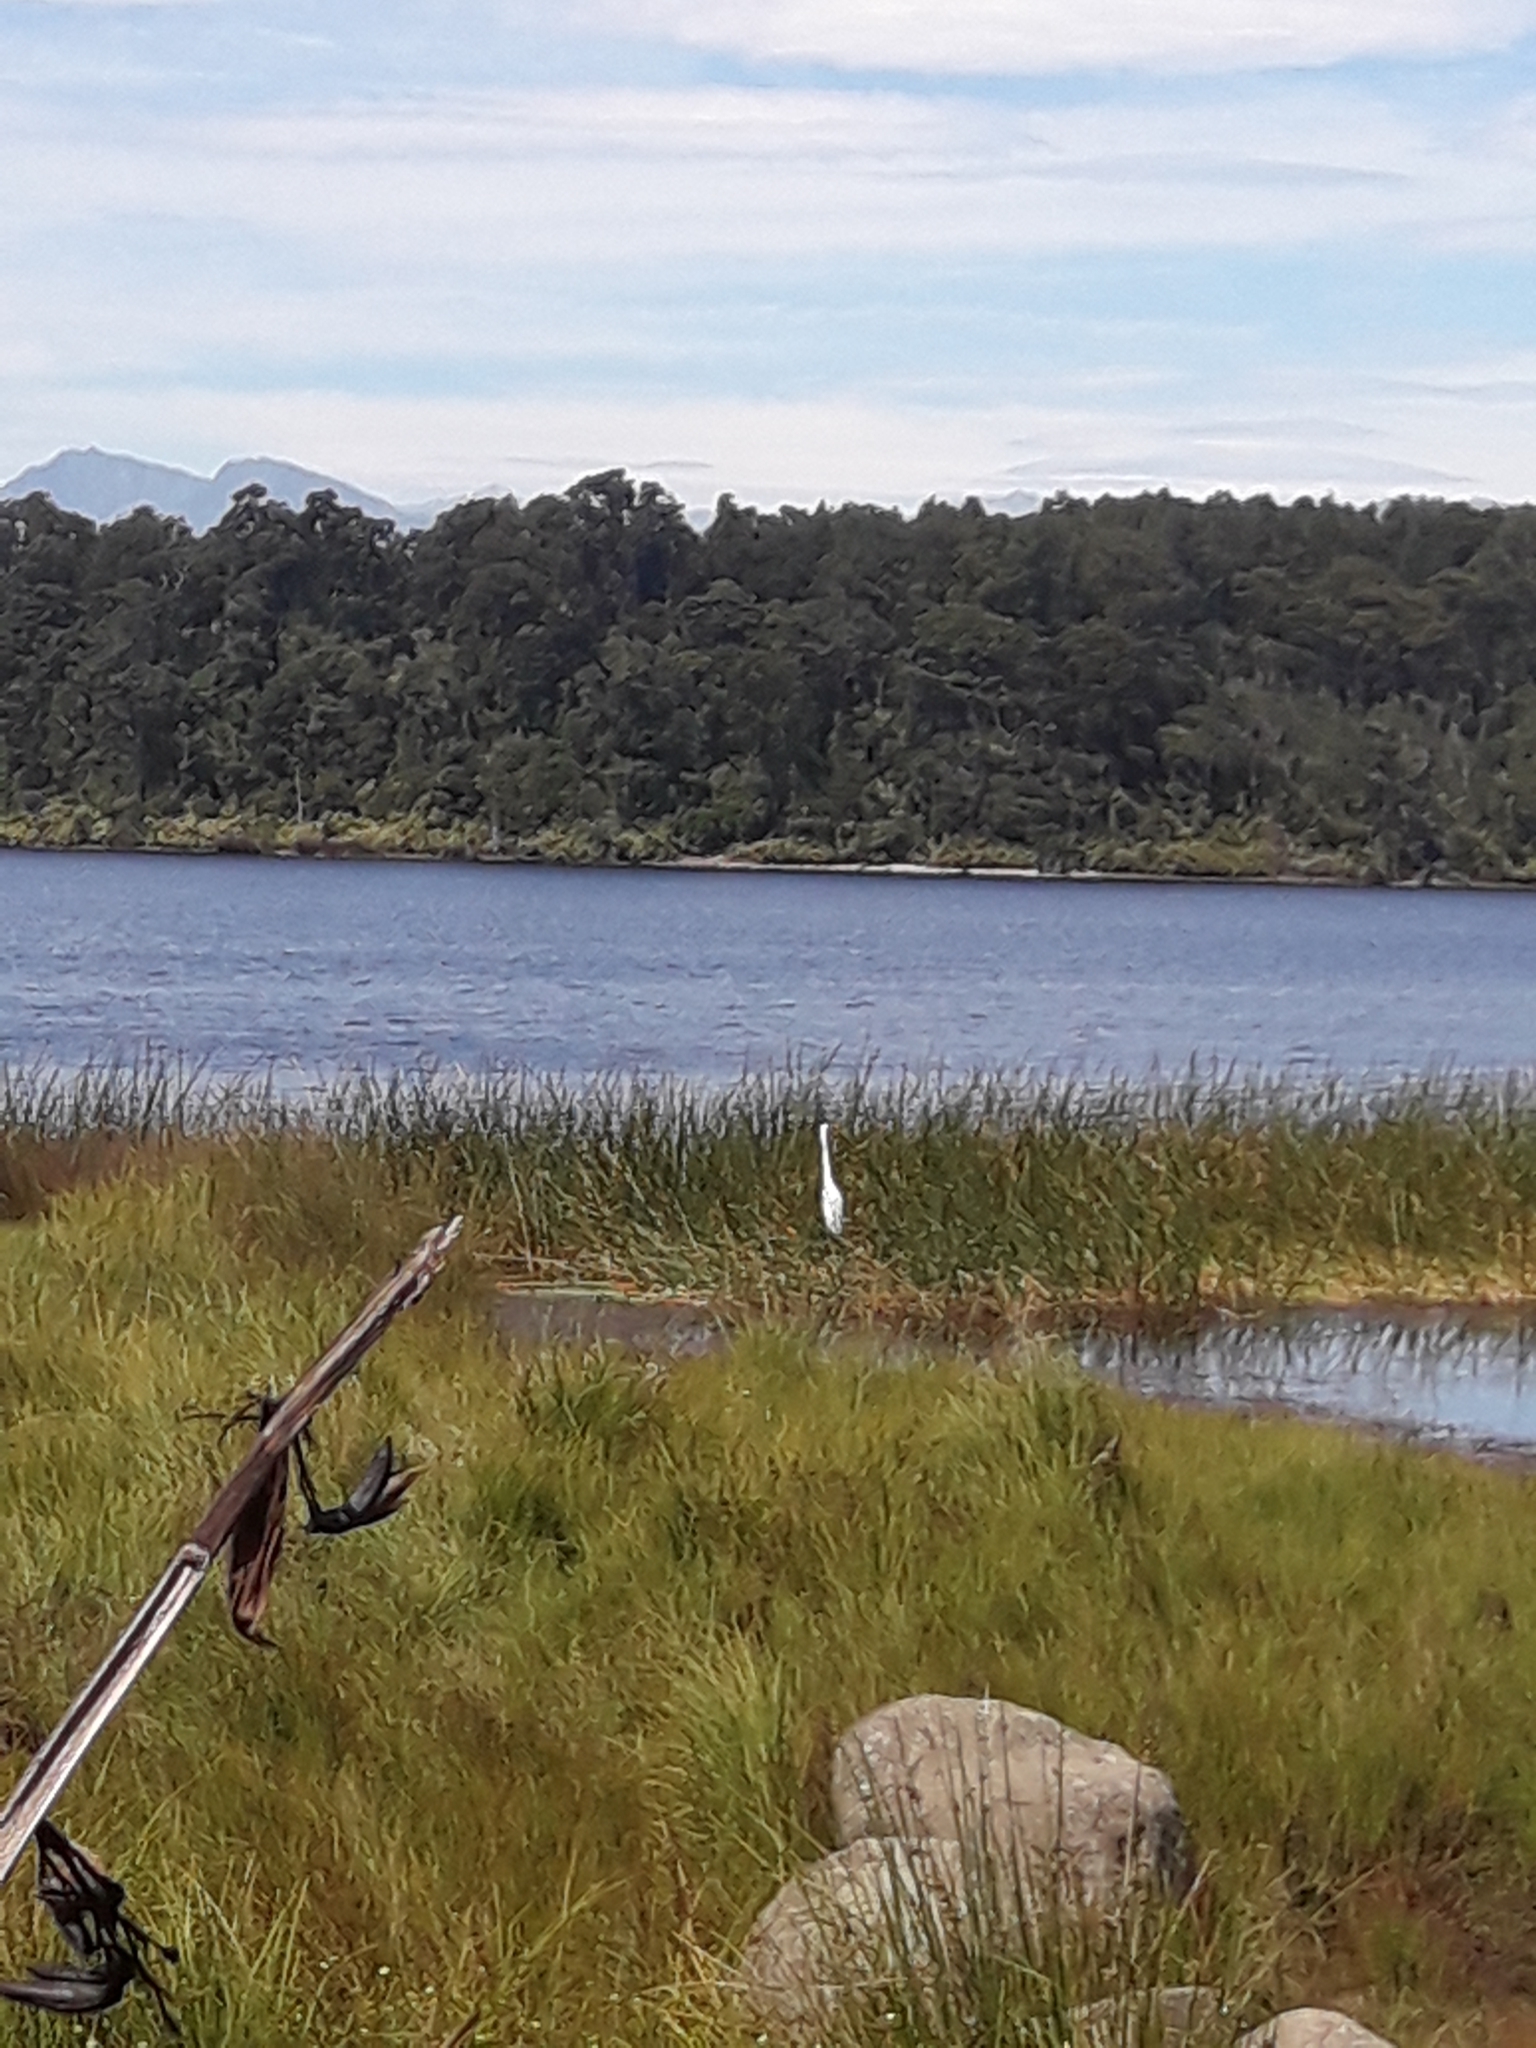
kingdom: Animalia
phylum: Chordata
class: Aves
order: Pelecaniformes
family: Ardeidae
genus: Ardea
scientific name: Ardea modesta
